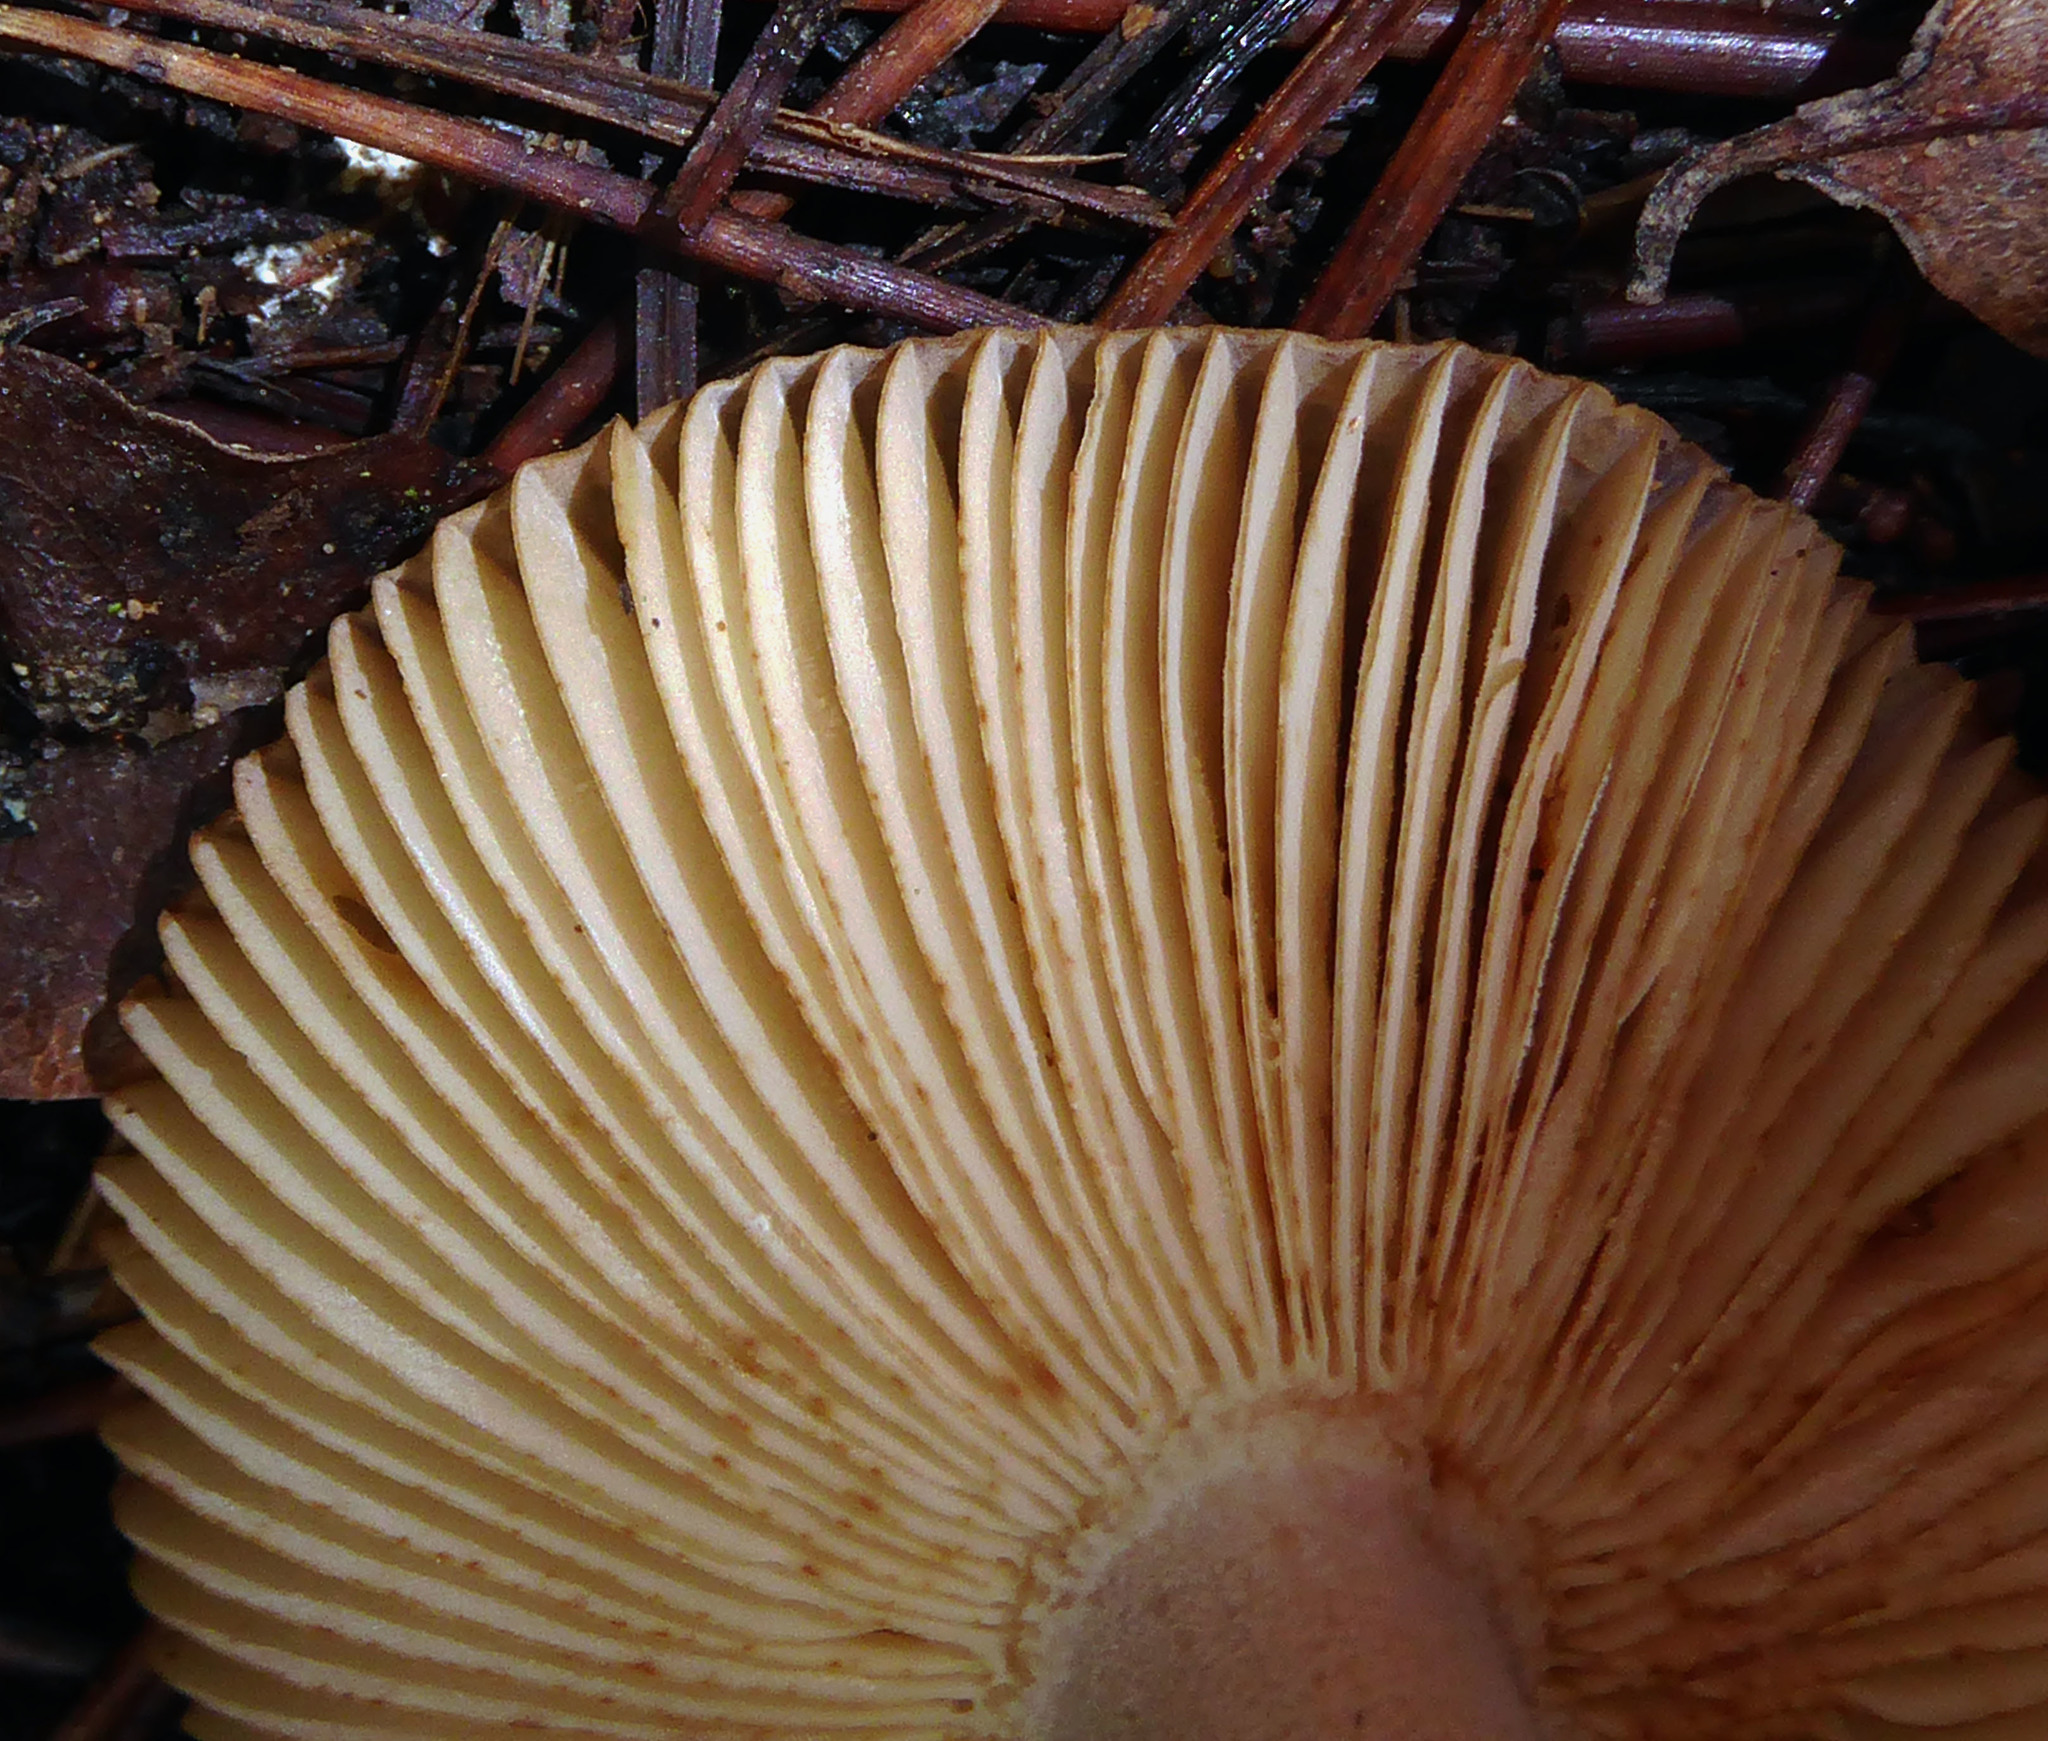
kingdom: Fungi
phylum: Basidiomycota
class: Agaricomycetes
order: Russulales
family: Russulaceae
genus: Russula
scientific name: Russula acrolamellata
